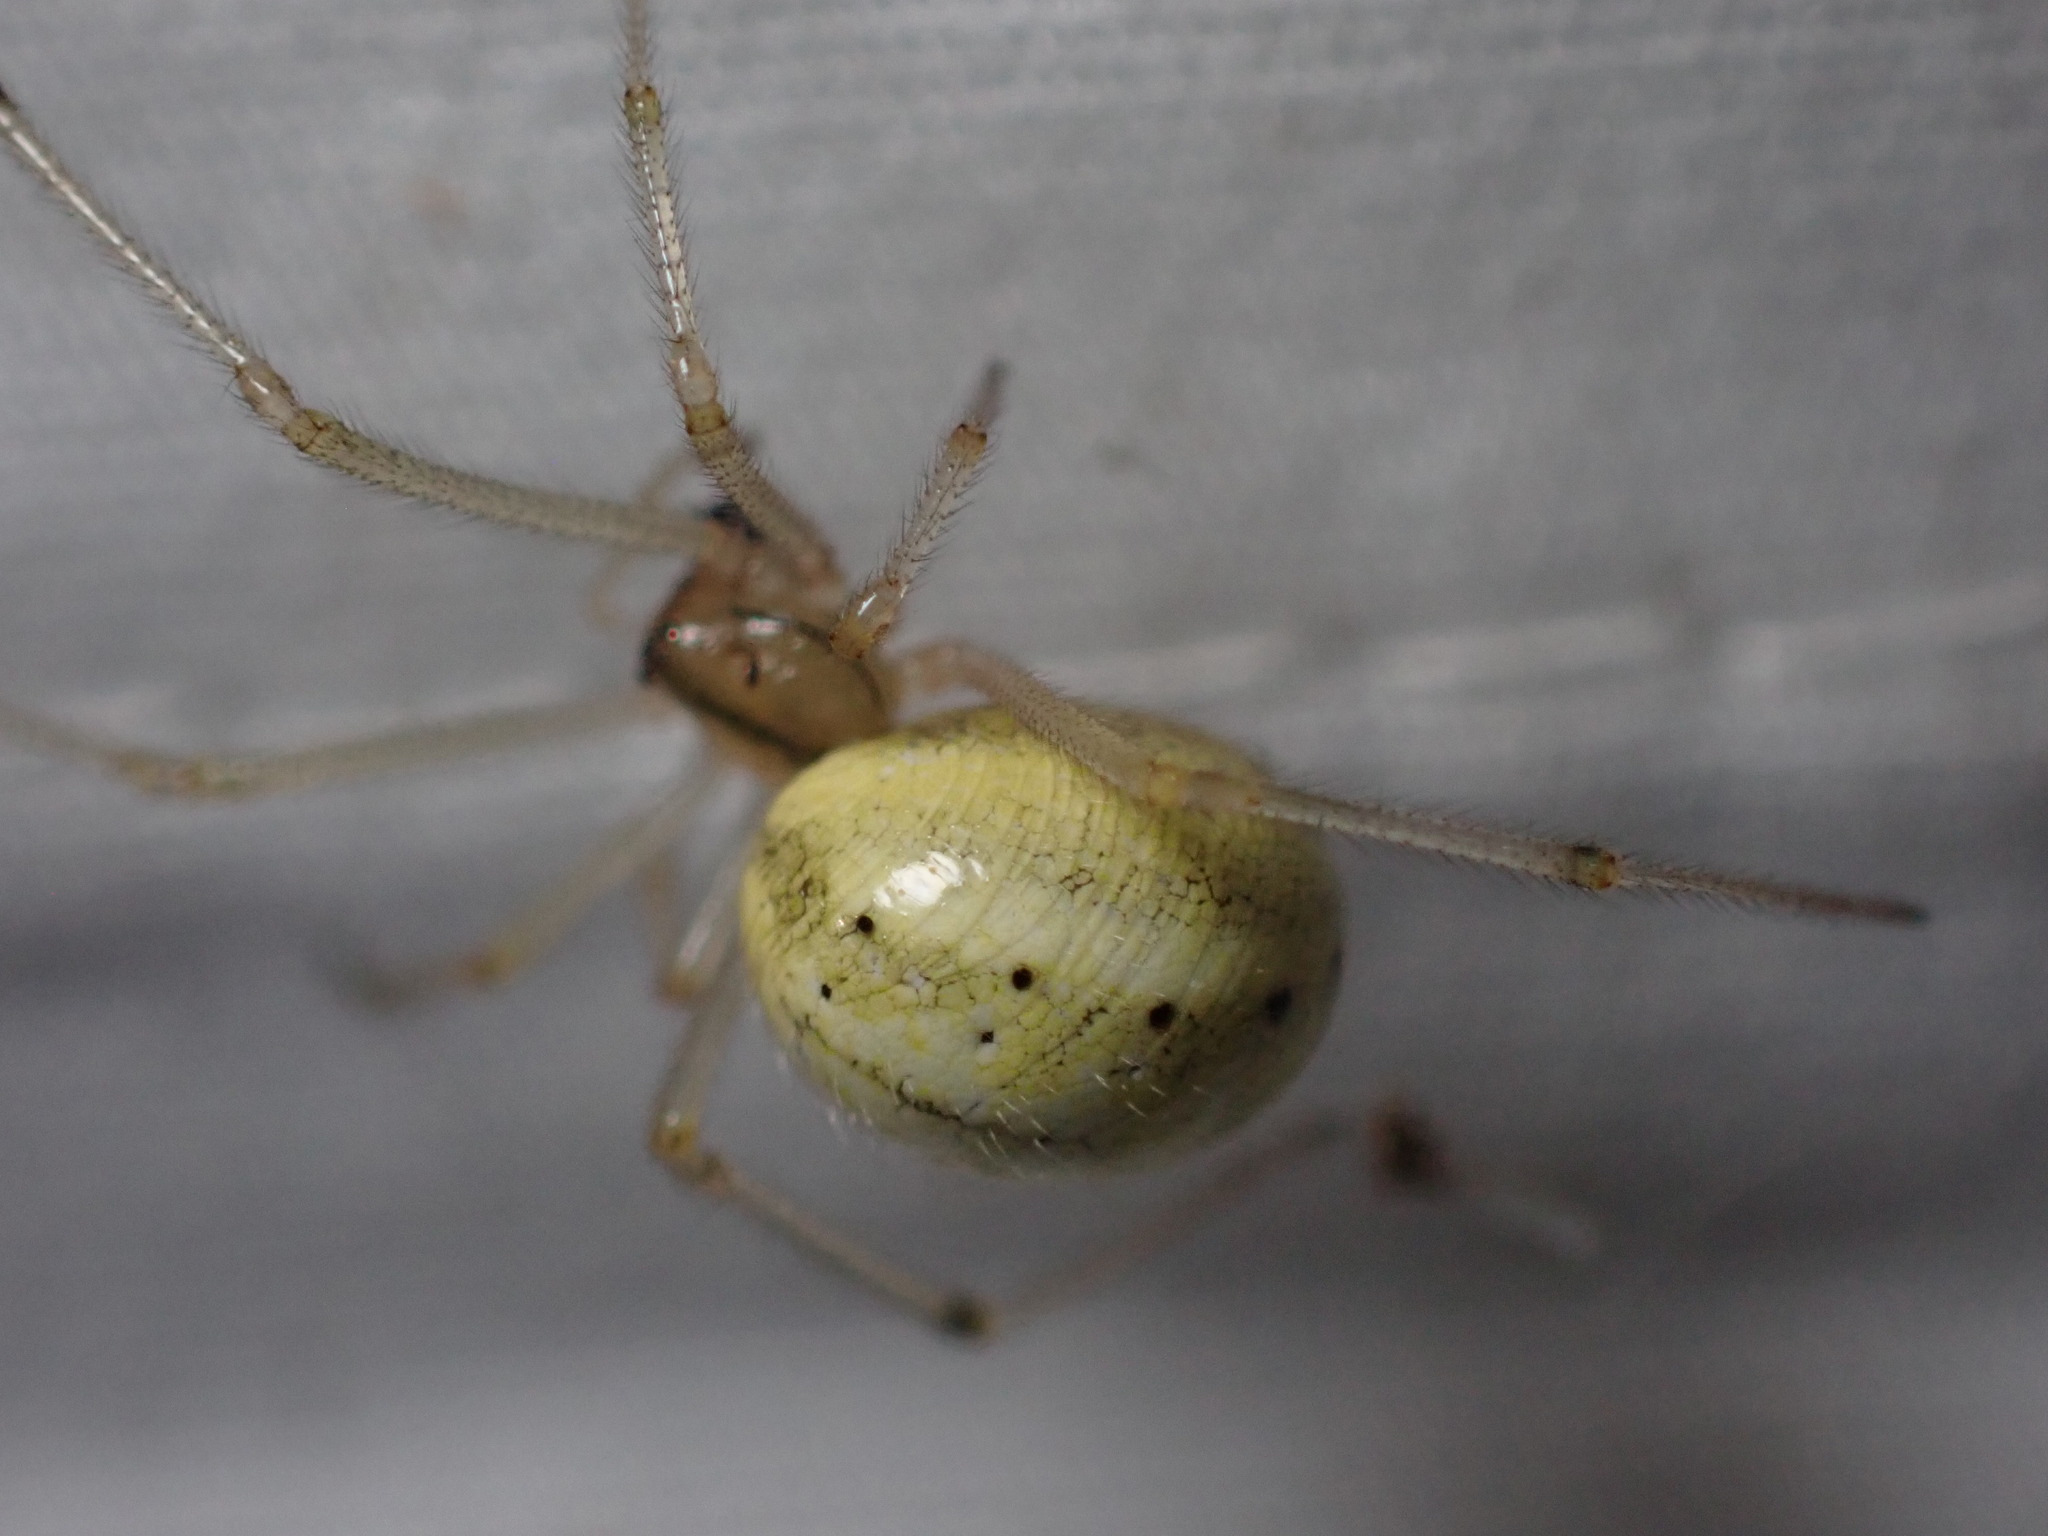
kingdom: Animalia
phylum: Arthropoda
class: Arachnida
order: Araneae
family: Theridiidae
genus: Enoplognatha
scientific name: Enoplognatha ovata
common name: Common candy-striped spider
